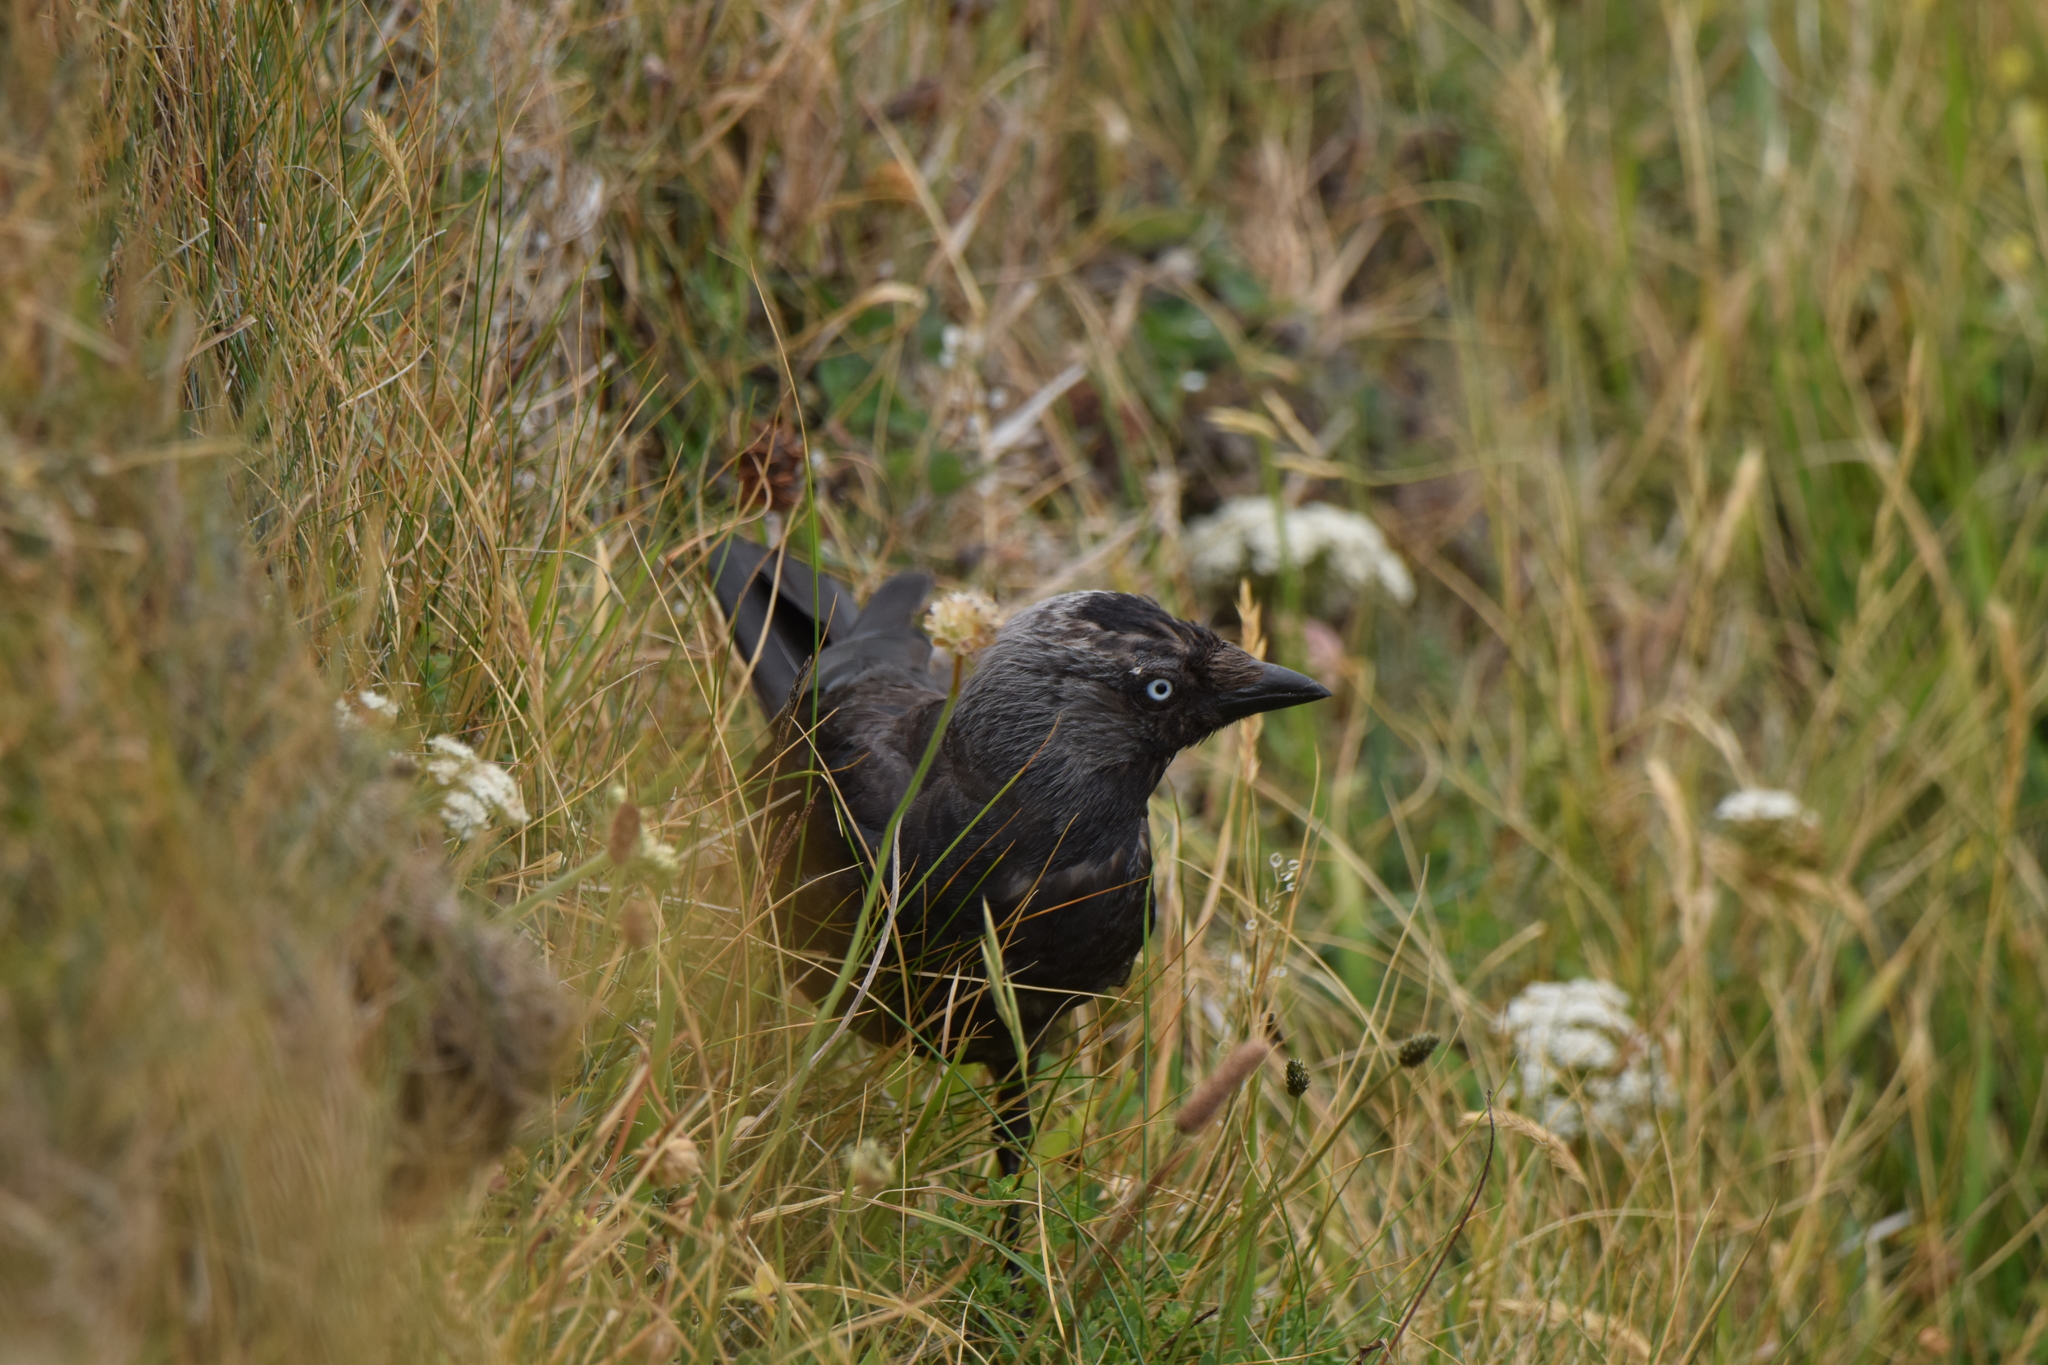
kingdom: Animalia
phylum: Chordata
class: Aves
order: Passeriformes
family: Corvidae
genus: Coloeus
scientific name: Coloeus monedula
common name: Western jackdaw
